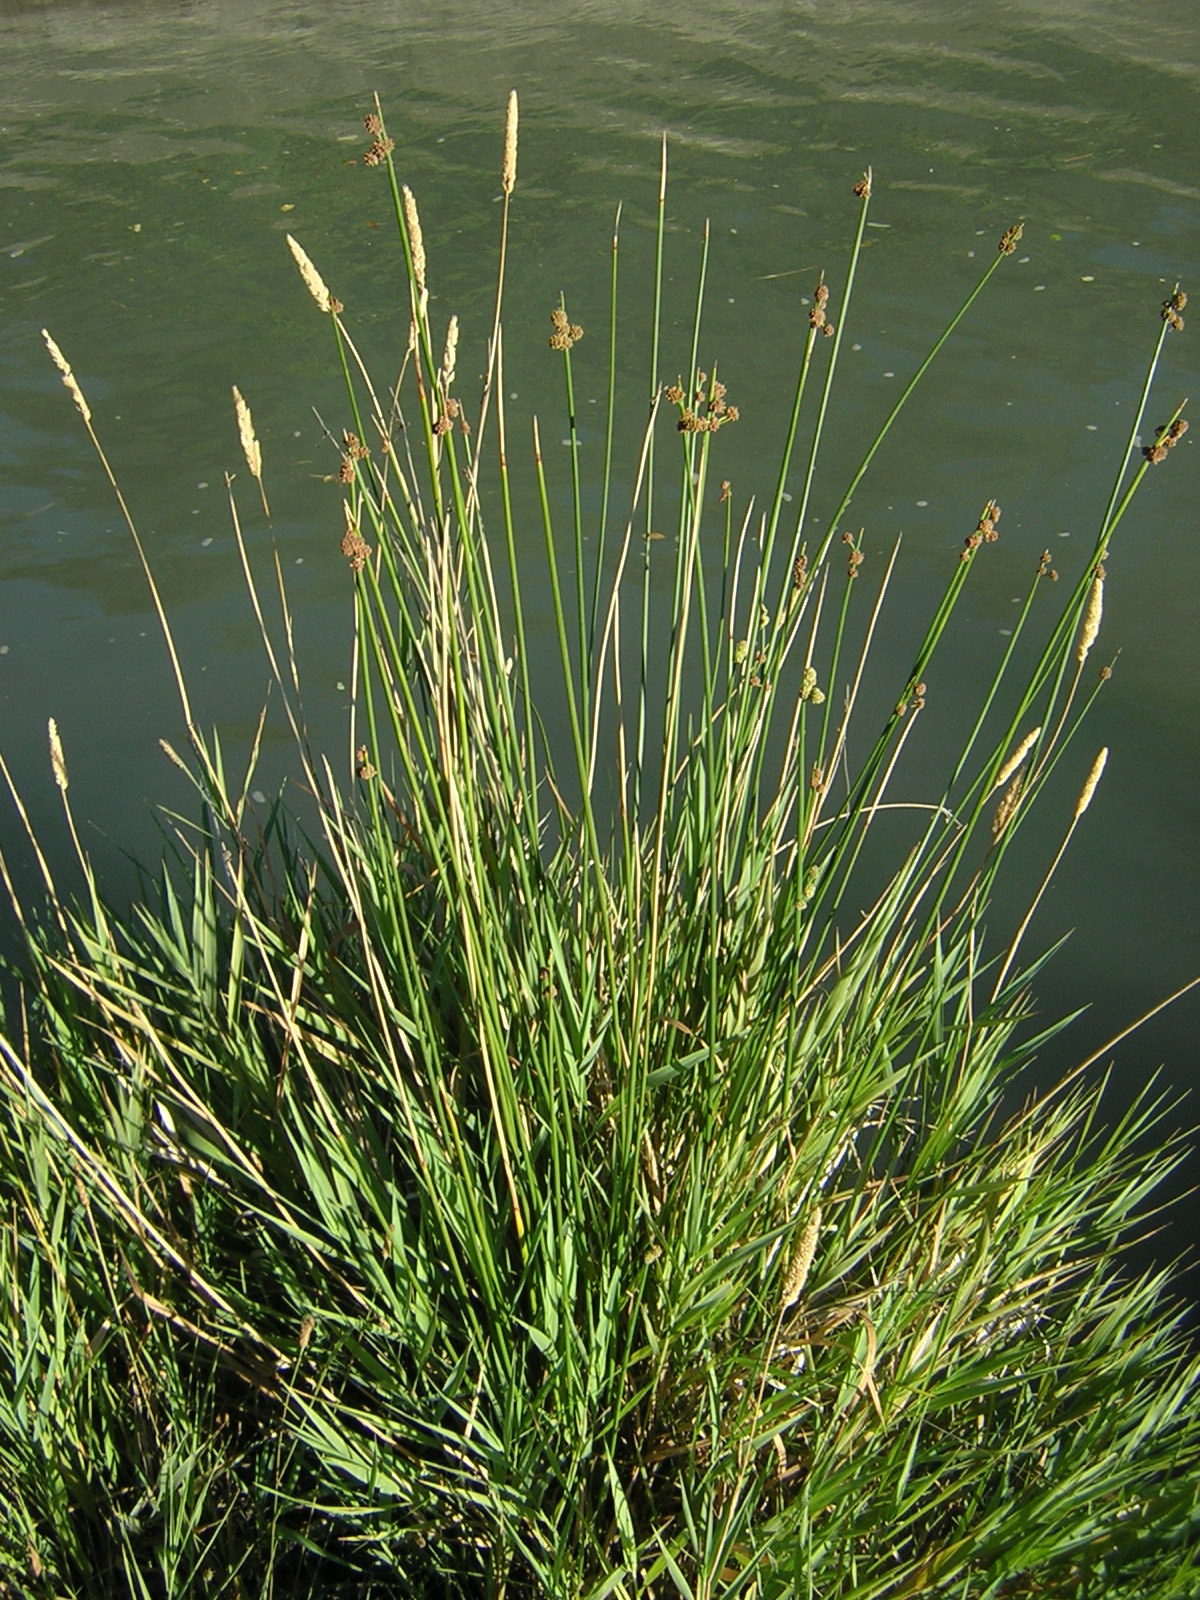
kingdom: Plantae
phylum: Tracheophyta
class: Liliopsida
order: Poales
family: Cyperaceae
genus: Scirpoides
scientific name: Scirpoides holoschoenus
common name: Round-headed club-rush
